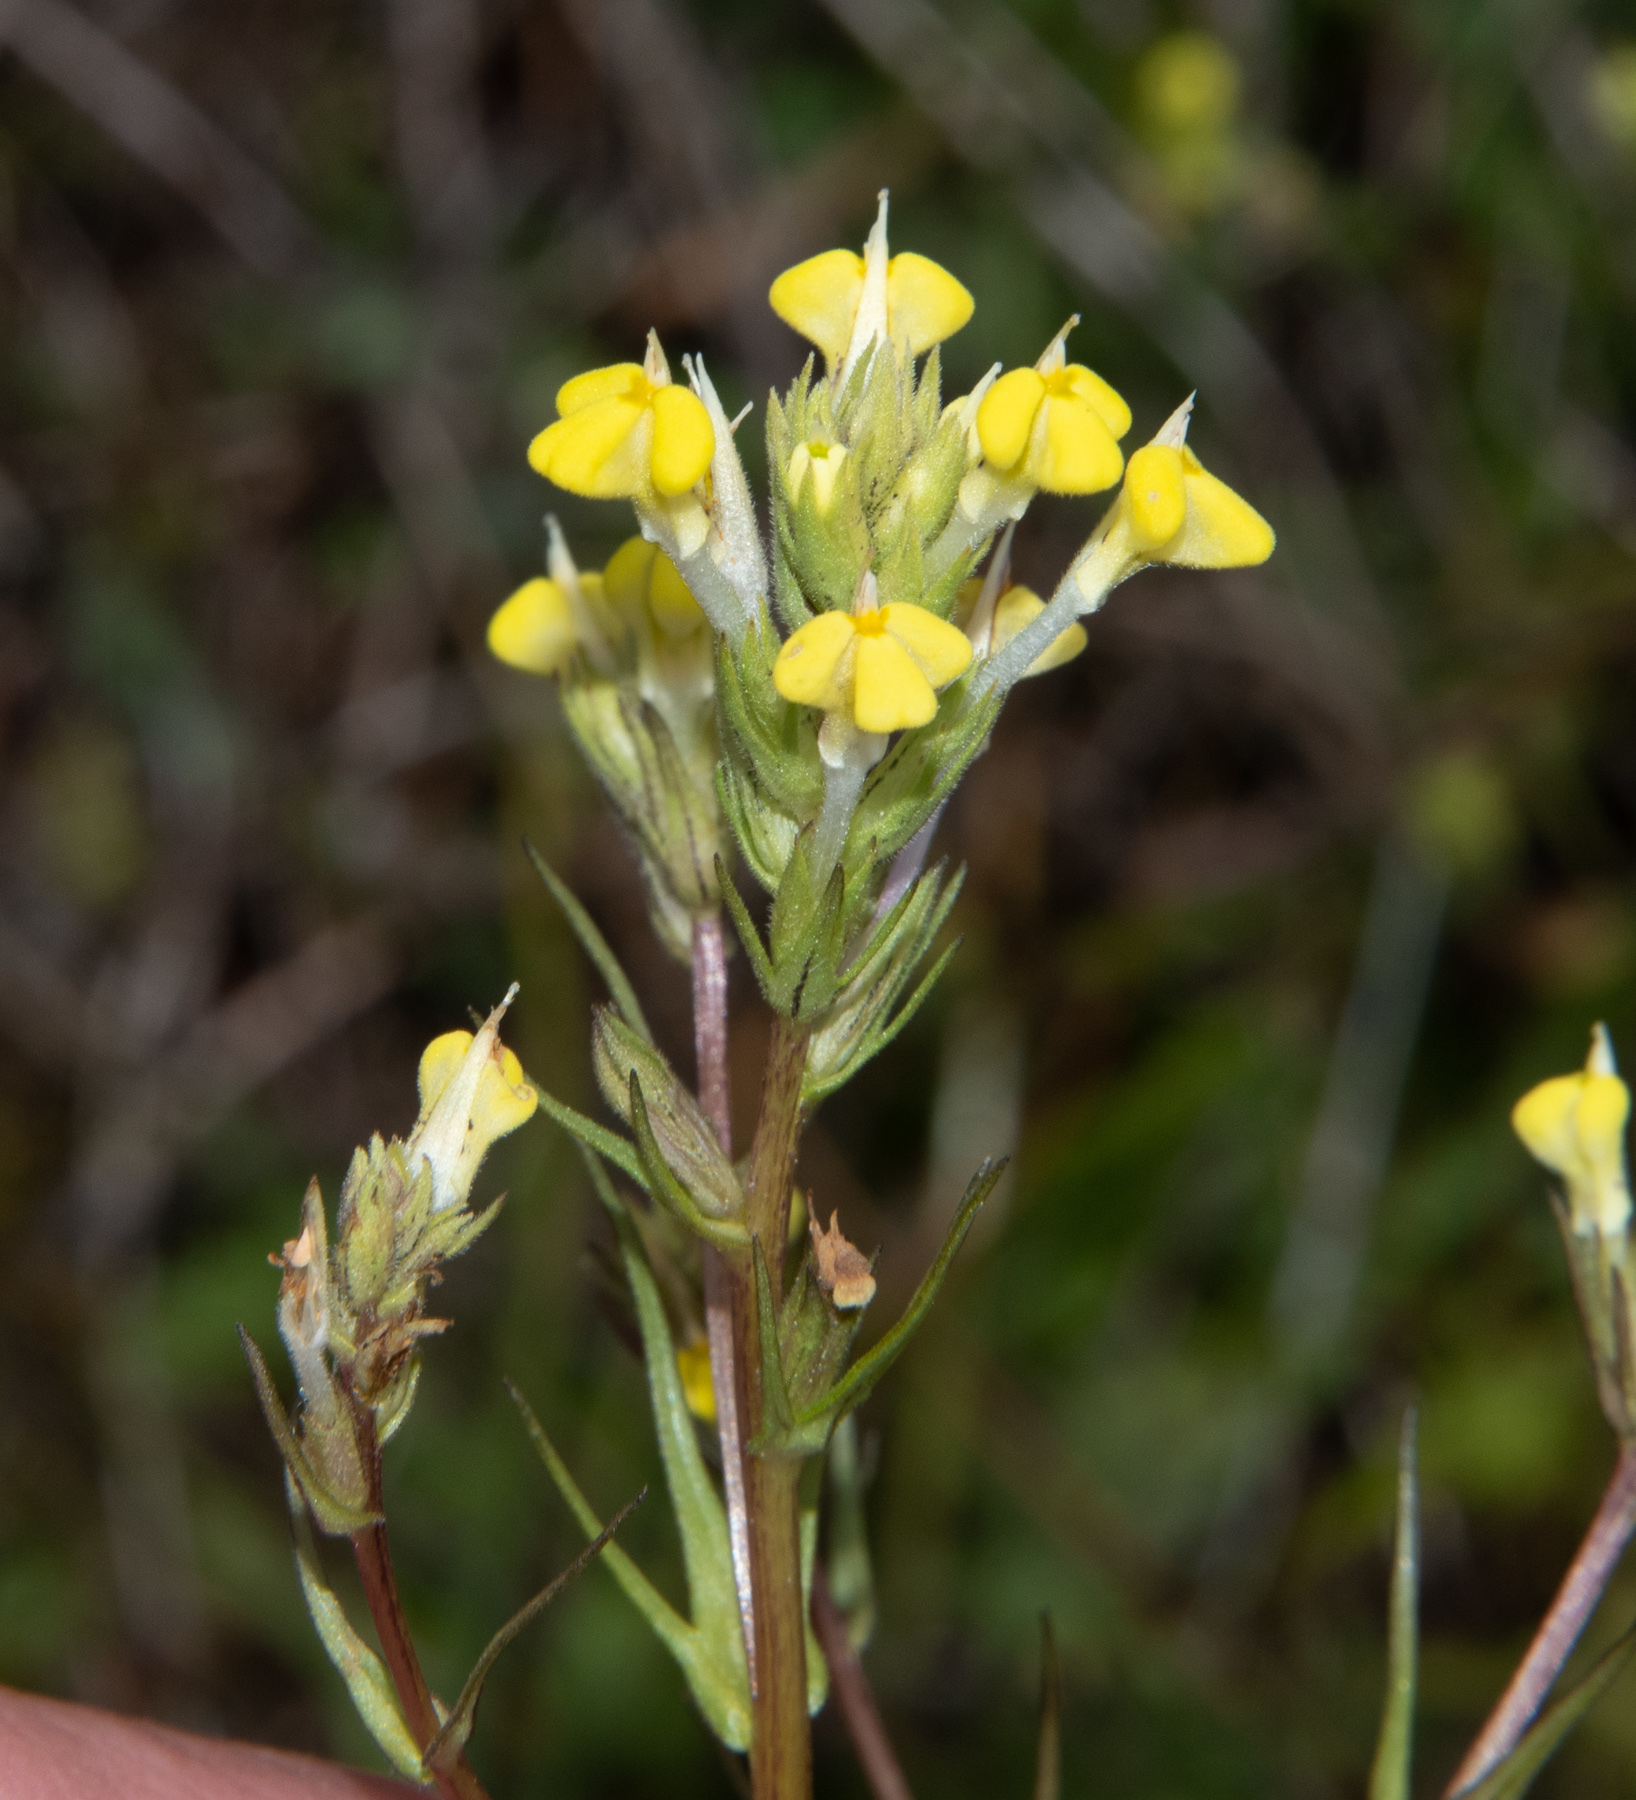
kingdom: Plantae
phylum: Tracheophyta
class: Magnoliopsida
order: Lamiales
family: Orobanchaceae
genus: Triphysaria
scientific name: Triphysaria versicolor
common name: Bearded false owl-clover
